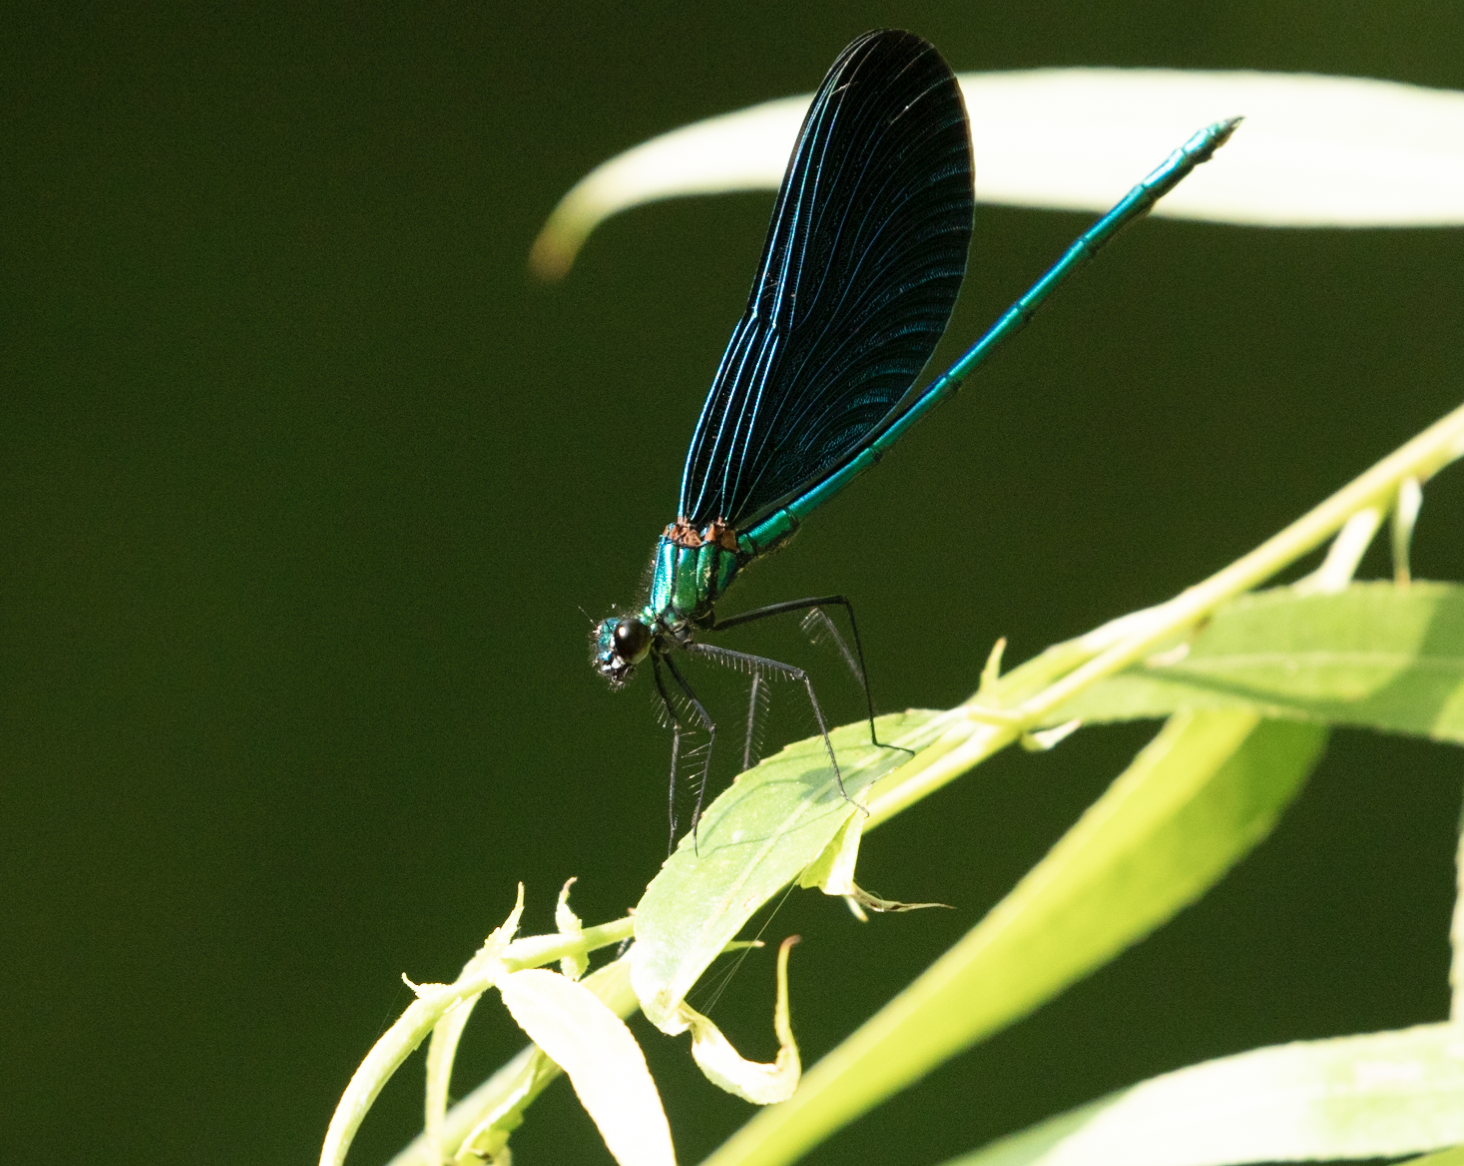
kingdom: Animalia
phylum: Arthropoda
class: Insecta
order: Odonata
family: Calopterygidae
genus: Calopteryx
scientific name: Calopteryx virgo
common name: Beautiful demoiselle
